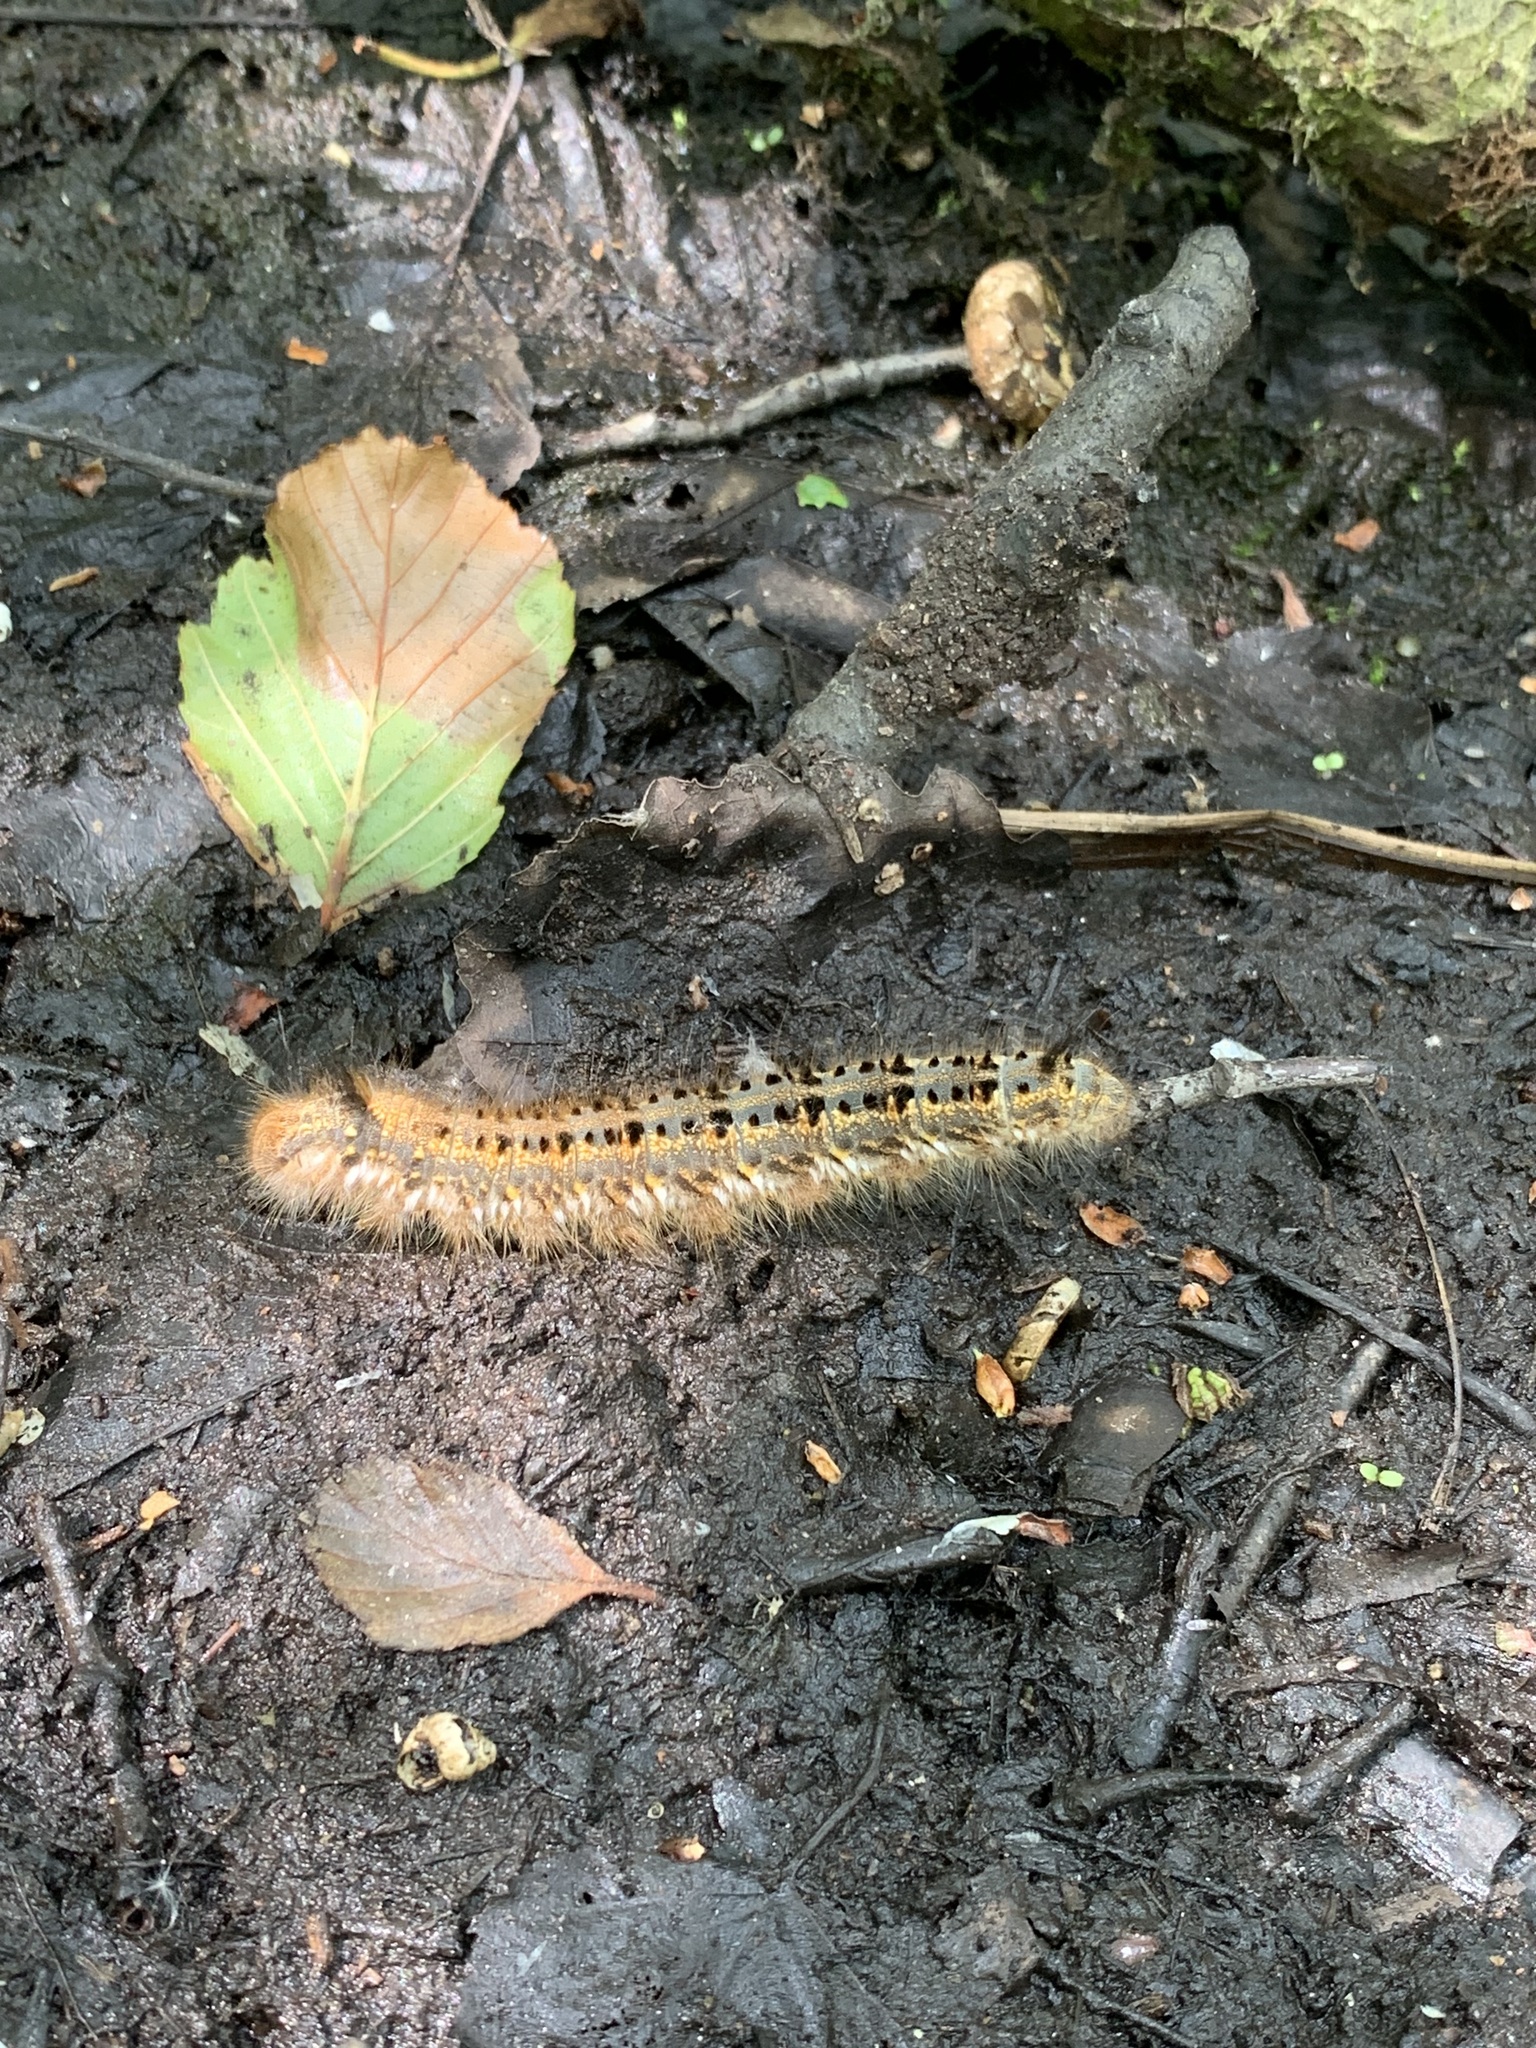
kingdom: Animalia
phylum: Arthropoda
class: Insecta
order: Lepidoptera
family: Lasiocampidae
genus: Euthrix
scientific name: Euthrix potatoria
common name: Drinker
